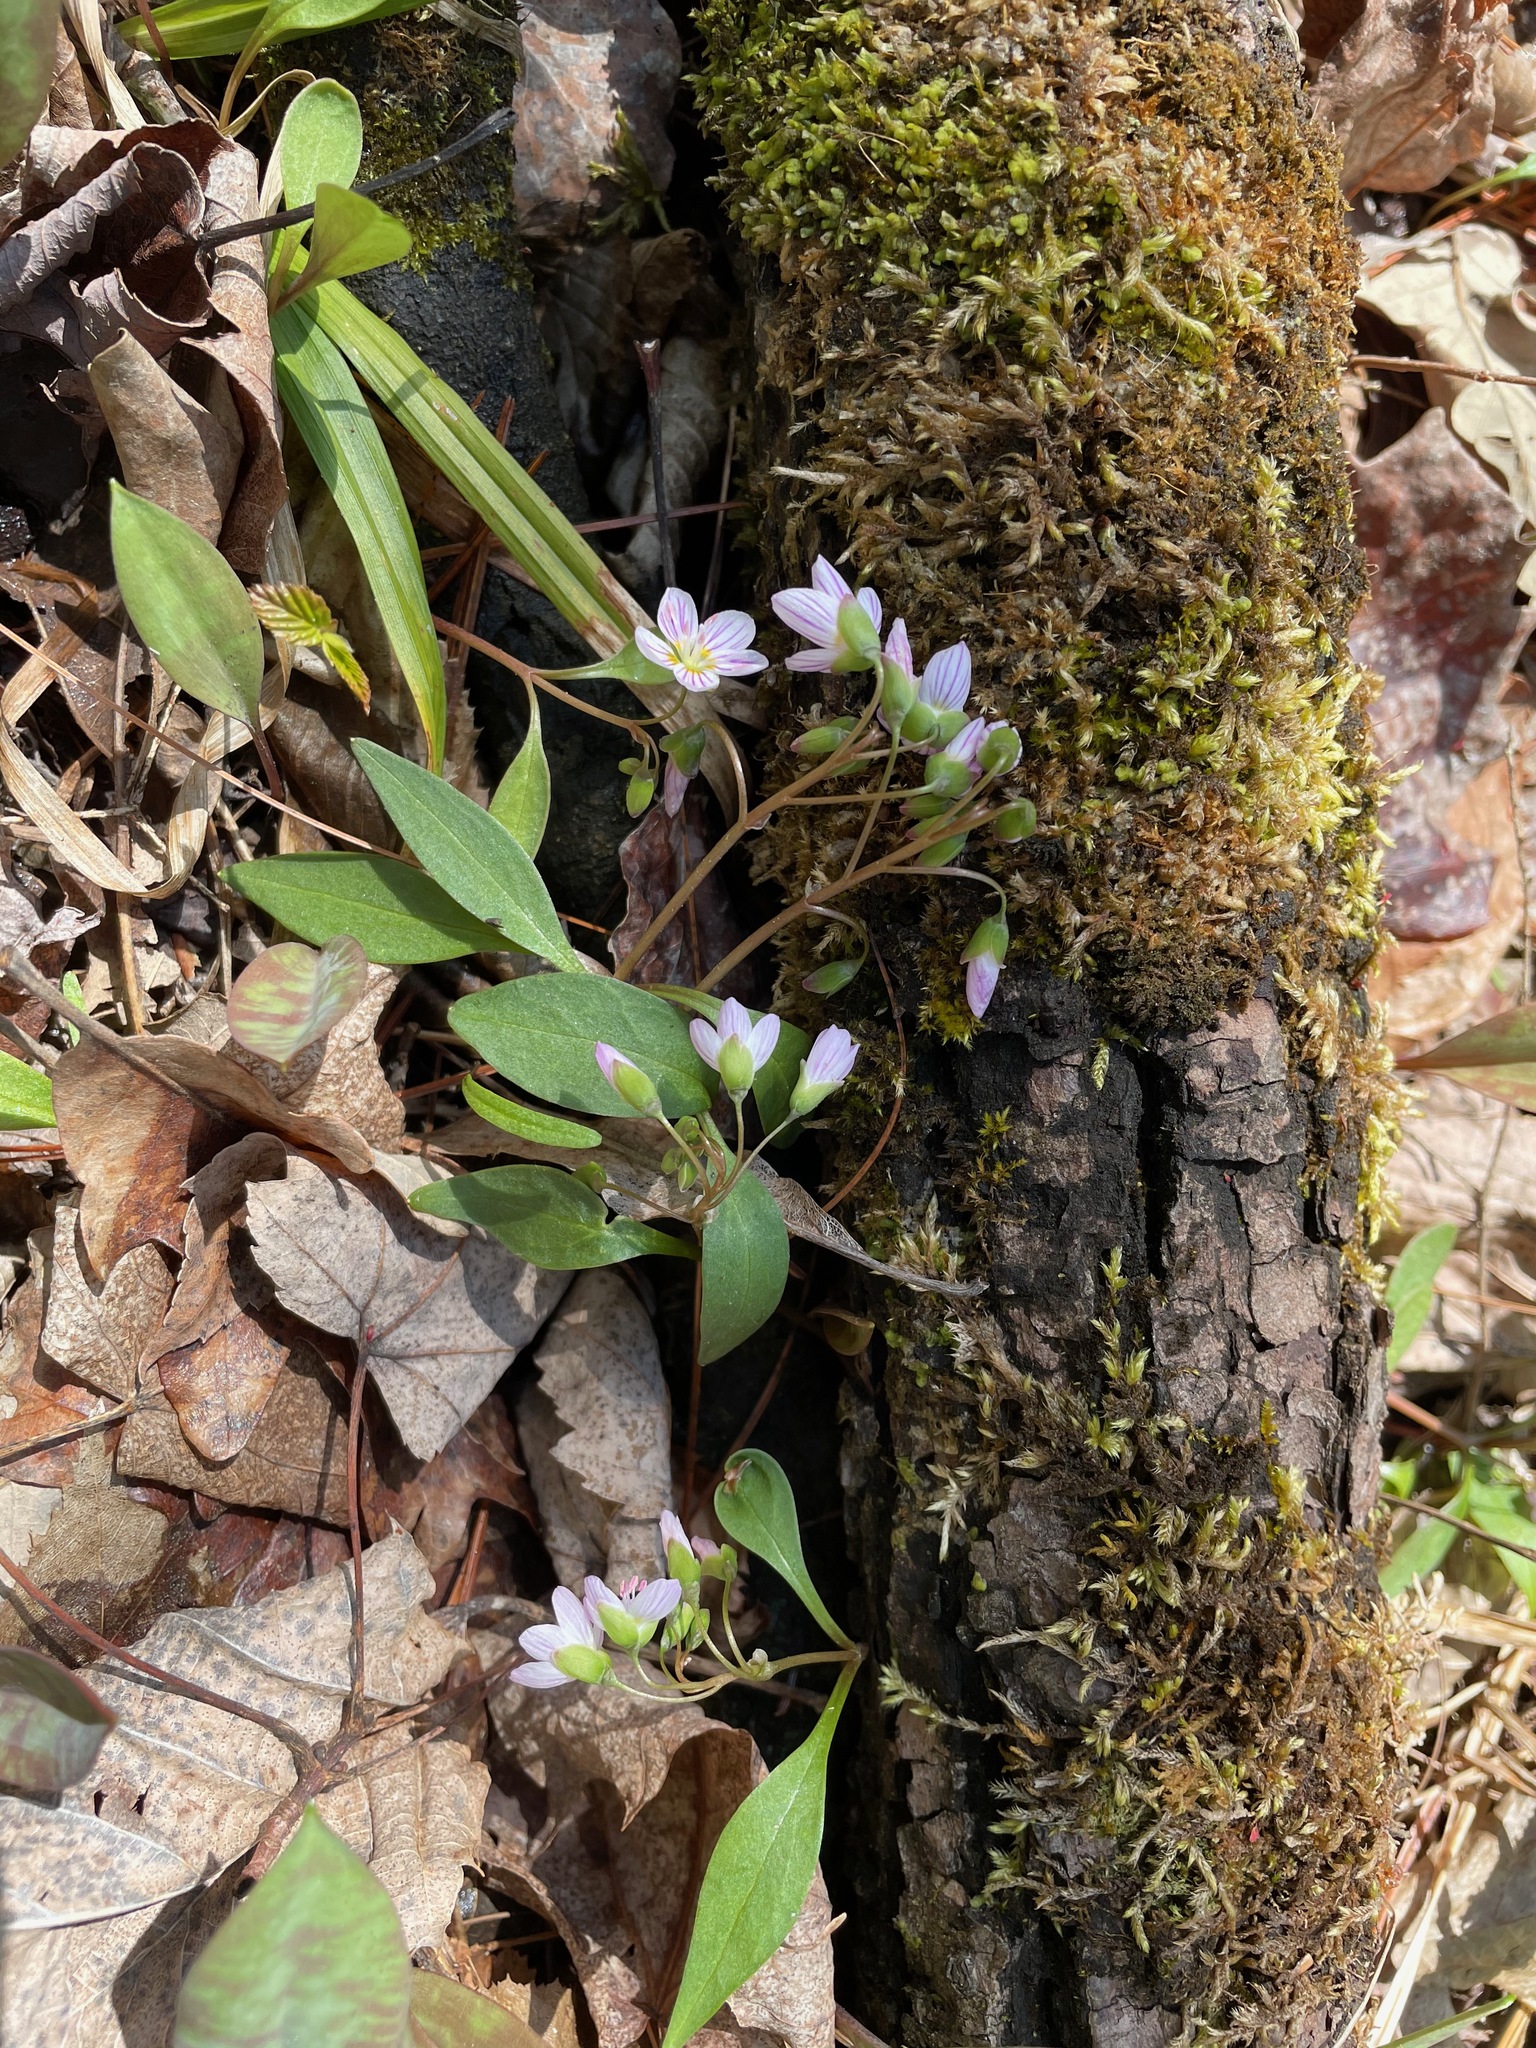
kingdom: Plantae
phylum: Tracheophyta
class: Magnoliopsida
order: Caryophyllales
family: Montiaceae
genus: Claytonia
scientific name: Claytonia caroliniana
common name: Carolina spring beauty
